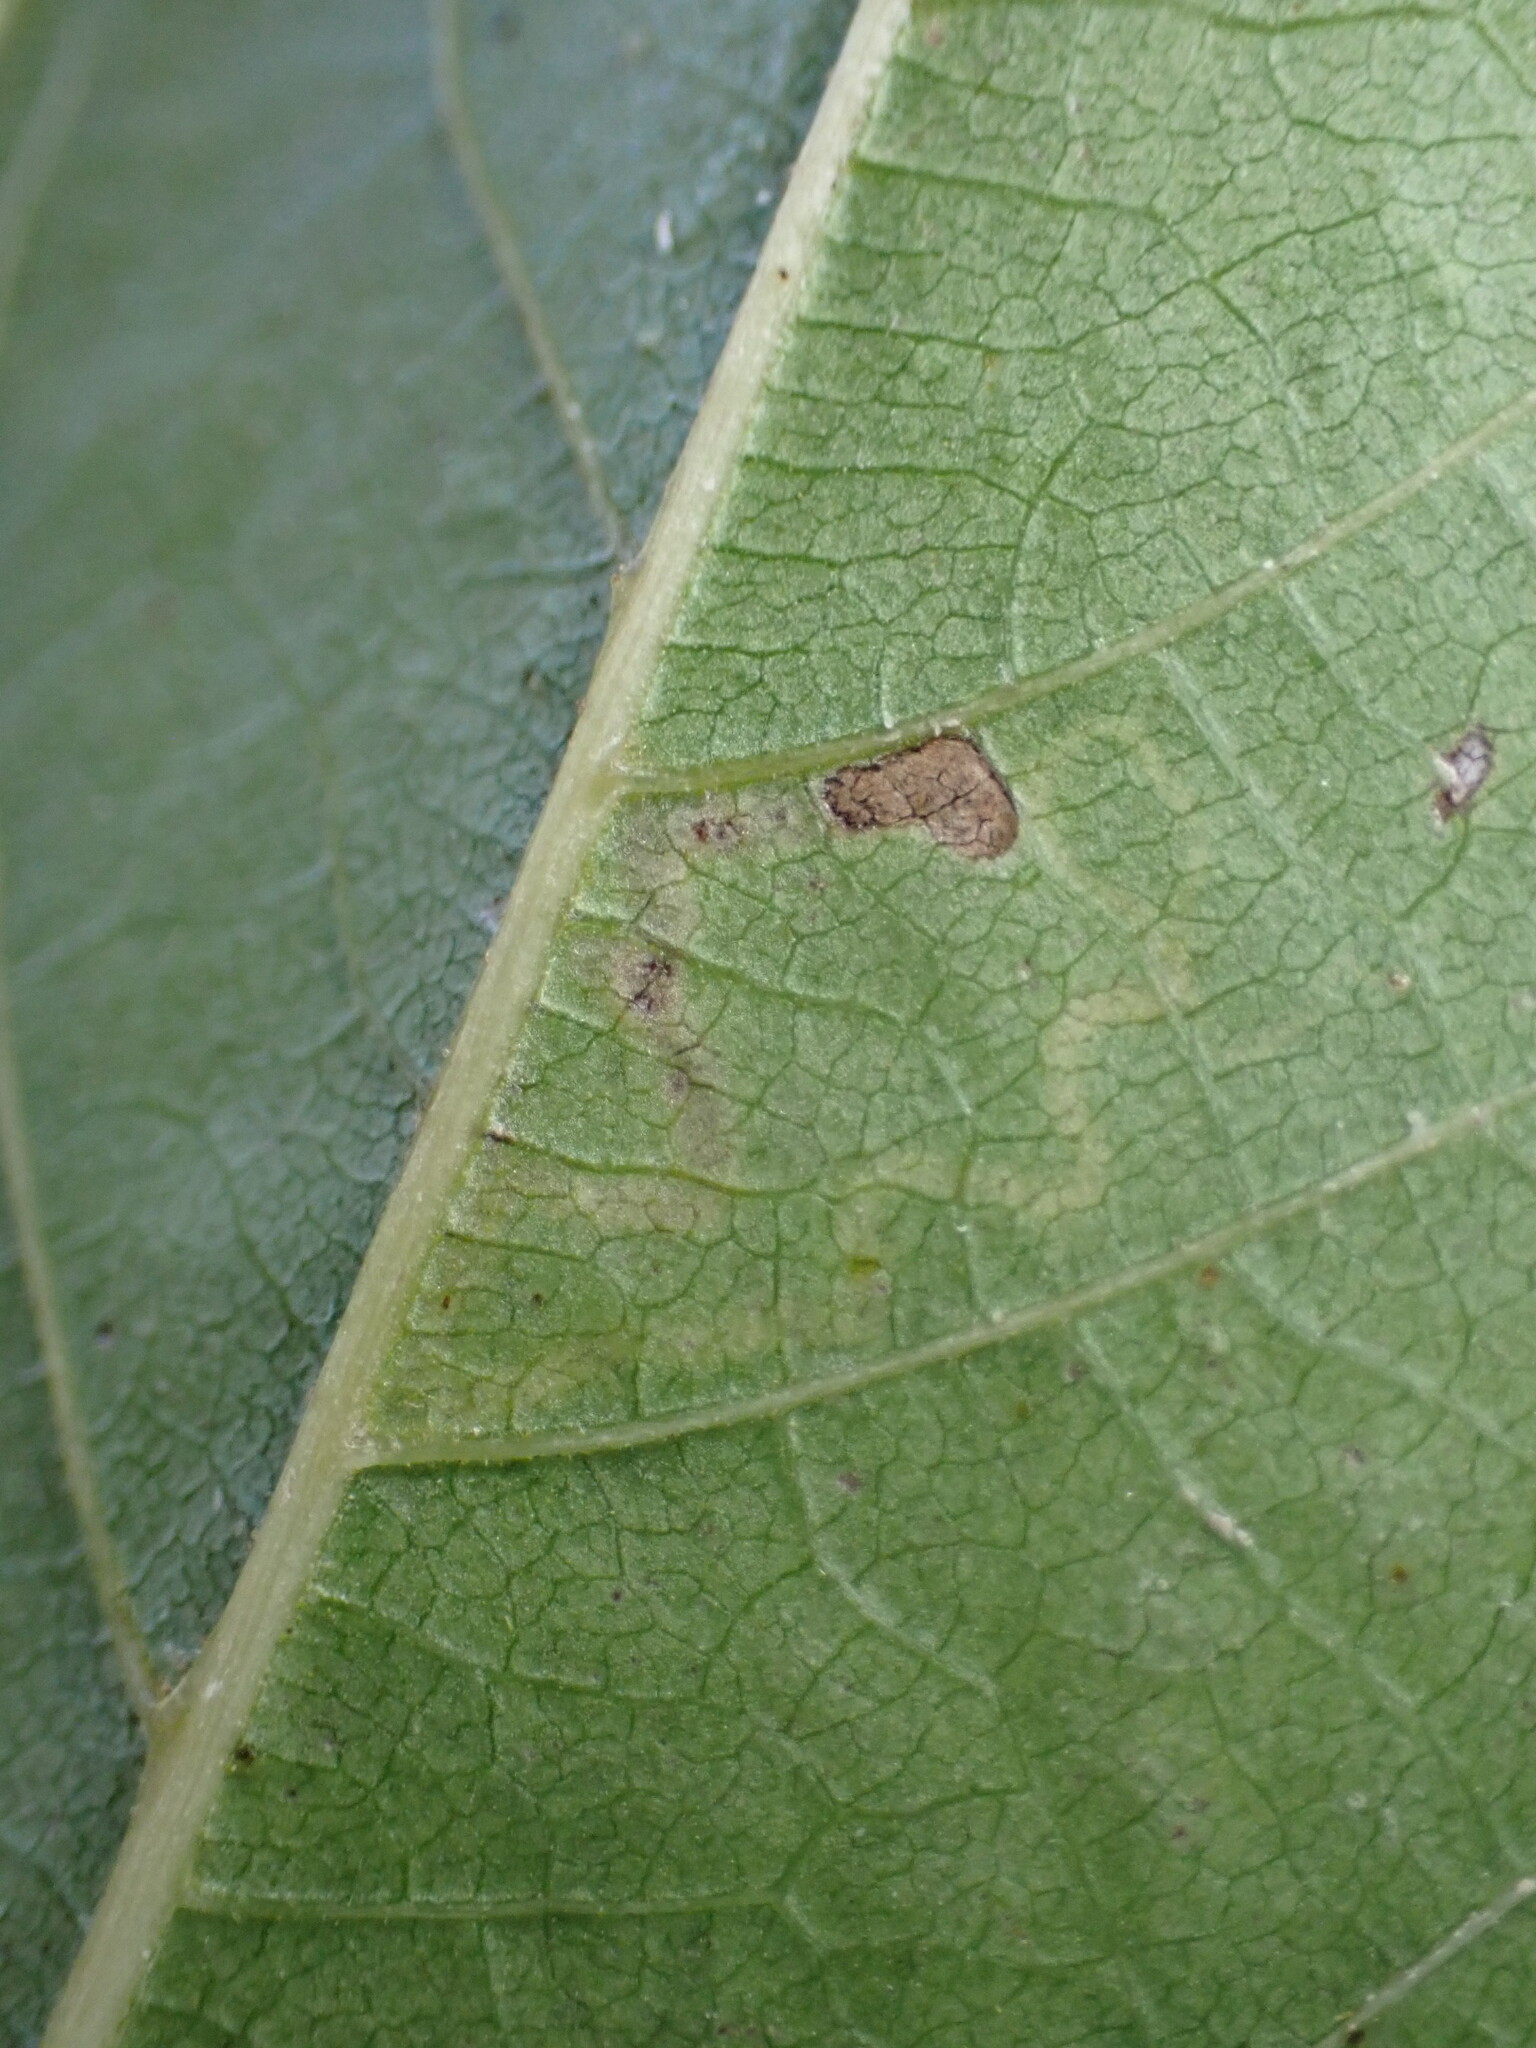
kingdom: Animalia
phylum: Arthropoda
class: Insecta
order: Lepidoptera
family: Nepticulidae
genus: Stigmella
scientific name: Stigmella longisacca
